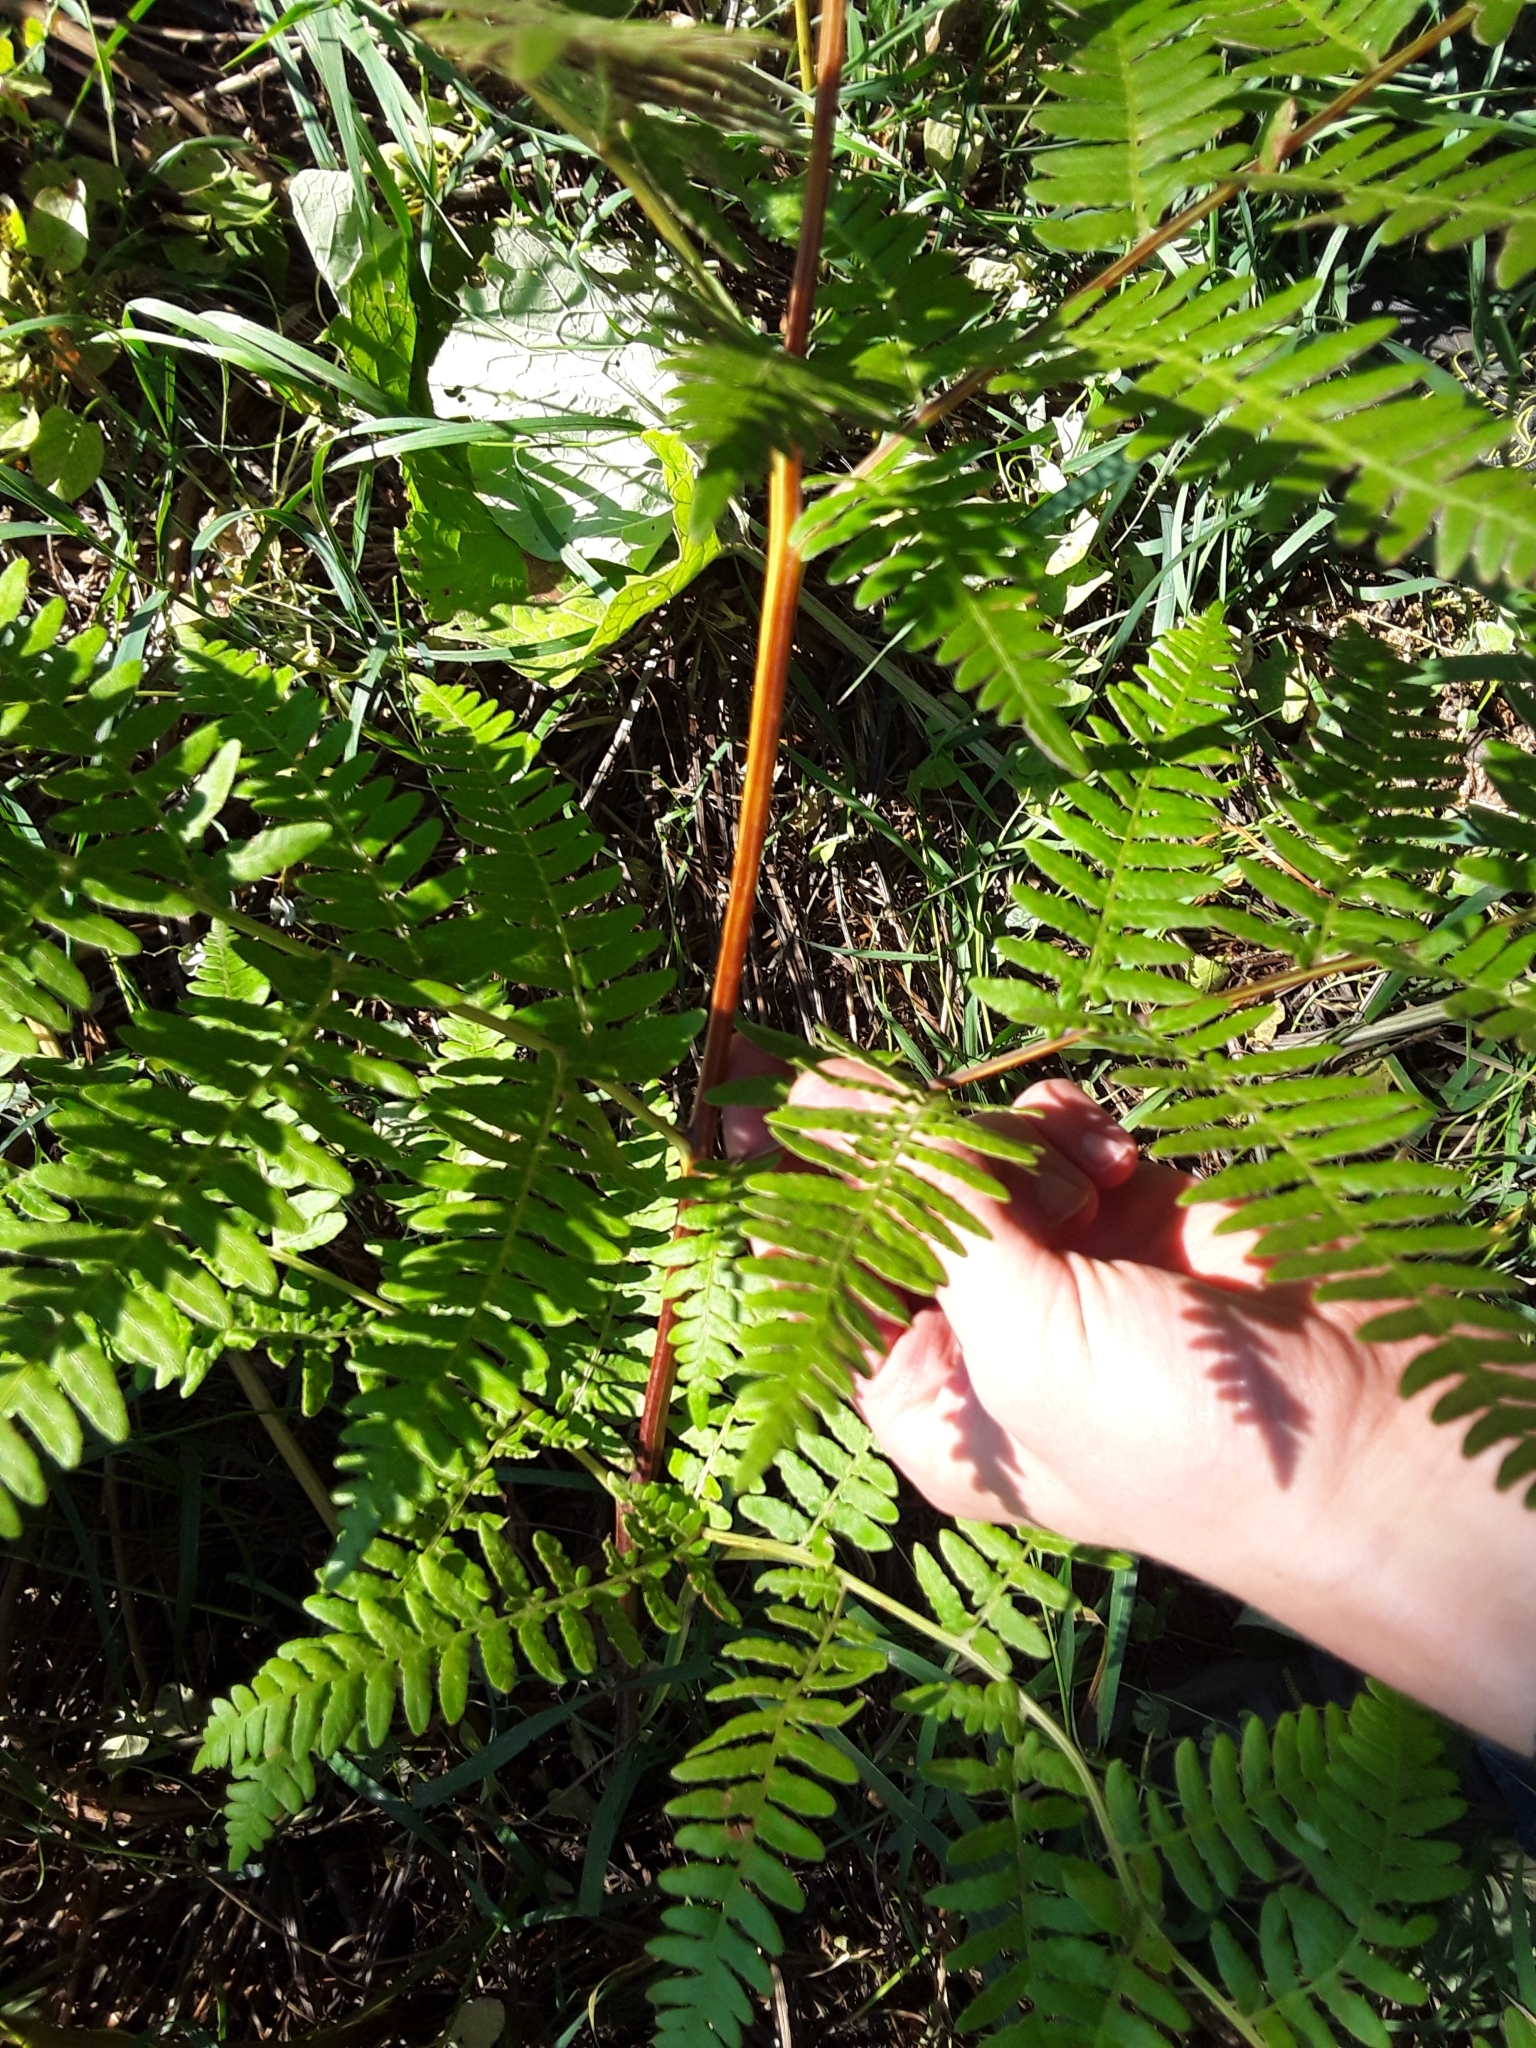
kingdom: Plantae
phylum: Tracheophyta
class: Polypodiopsida
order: Polypodiales
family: Dennstaedtiaceae
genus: Pteridium
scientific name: Pteridium aquilinum
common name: Bracken
